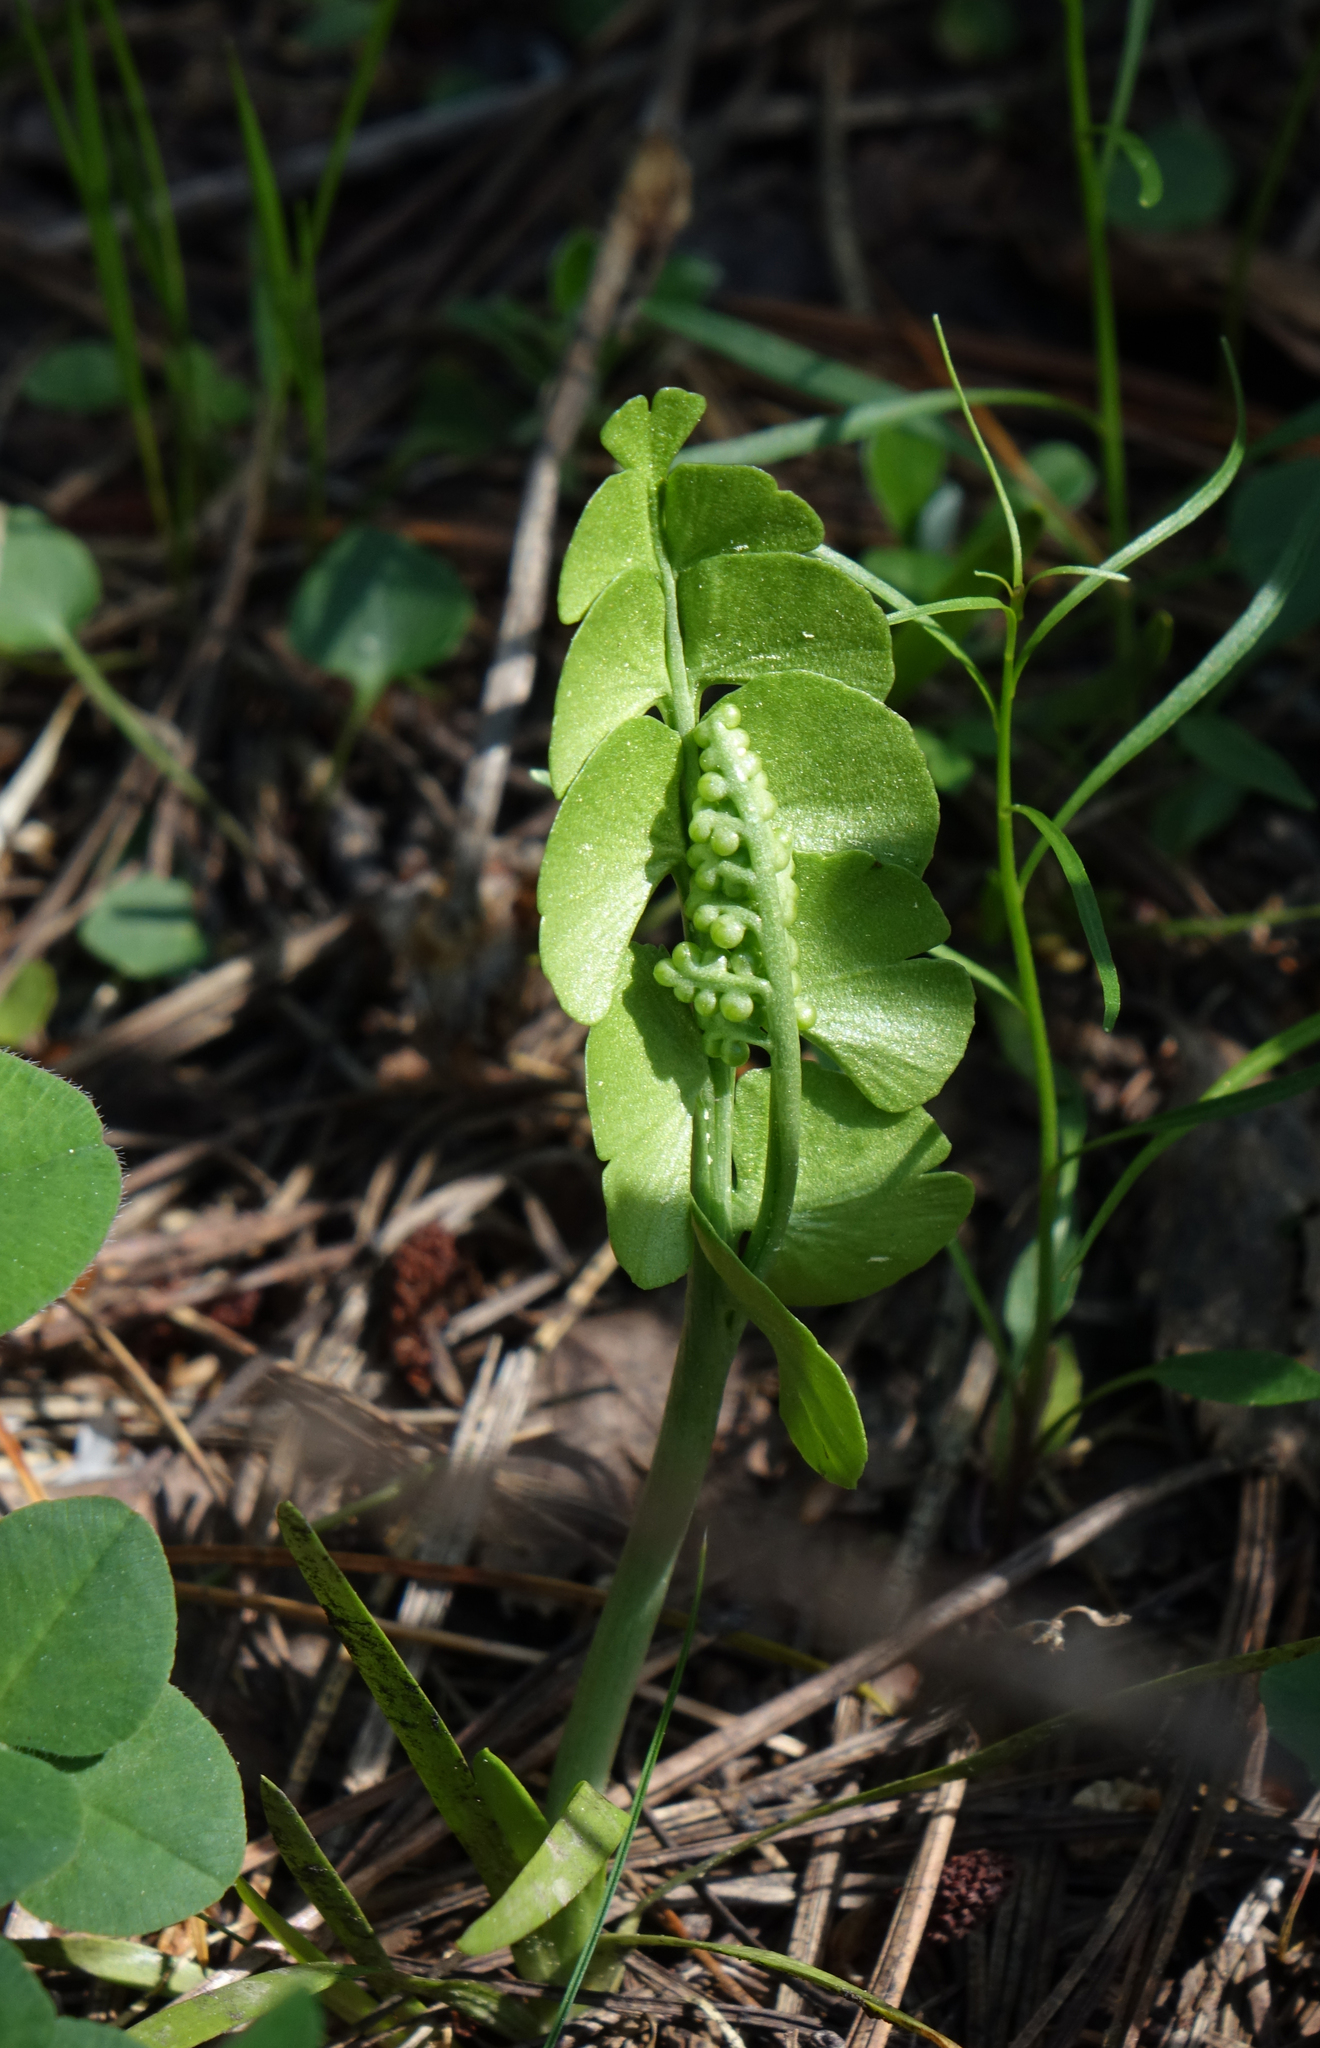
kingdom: Plantae
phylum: Tracheophyta
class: Polypodiopsida
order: Ophioglossales
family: Ophioglossaceae
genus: Botrychium
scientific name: Botrychium lunaria
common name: Moonwort
